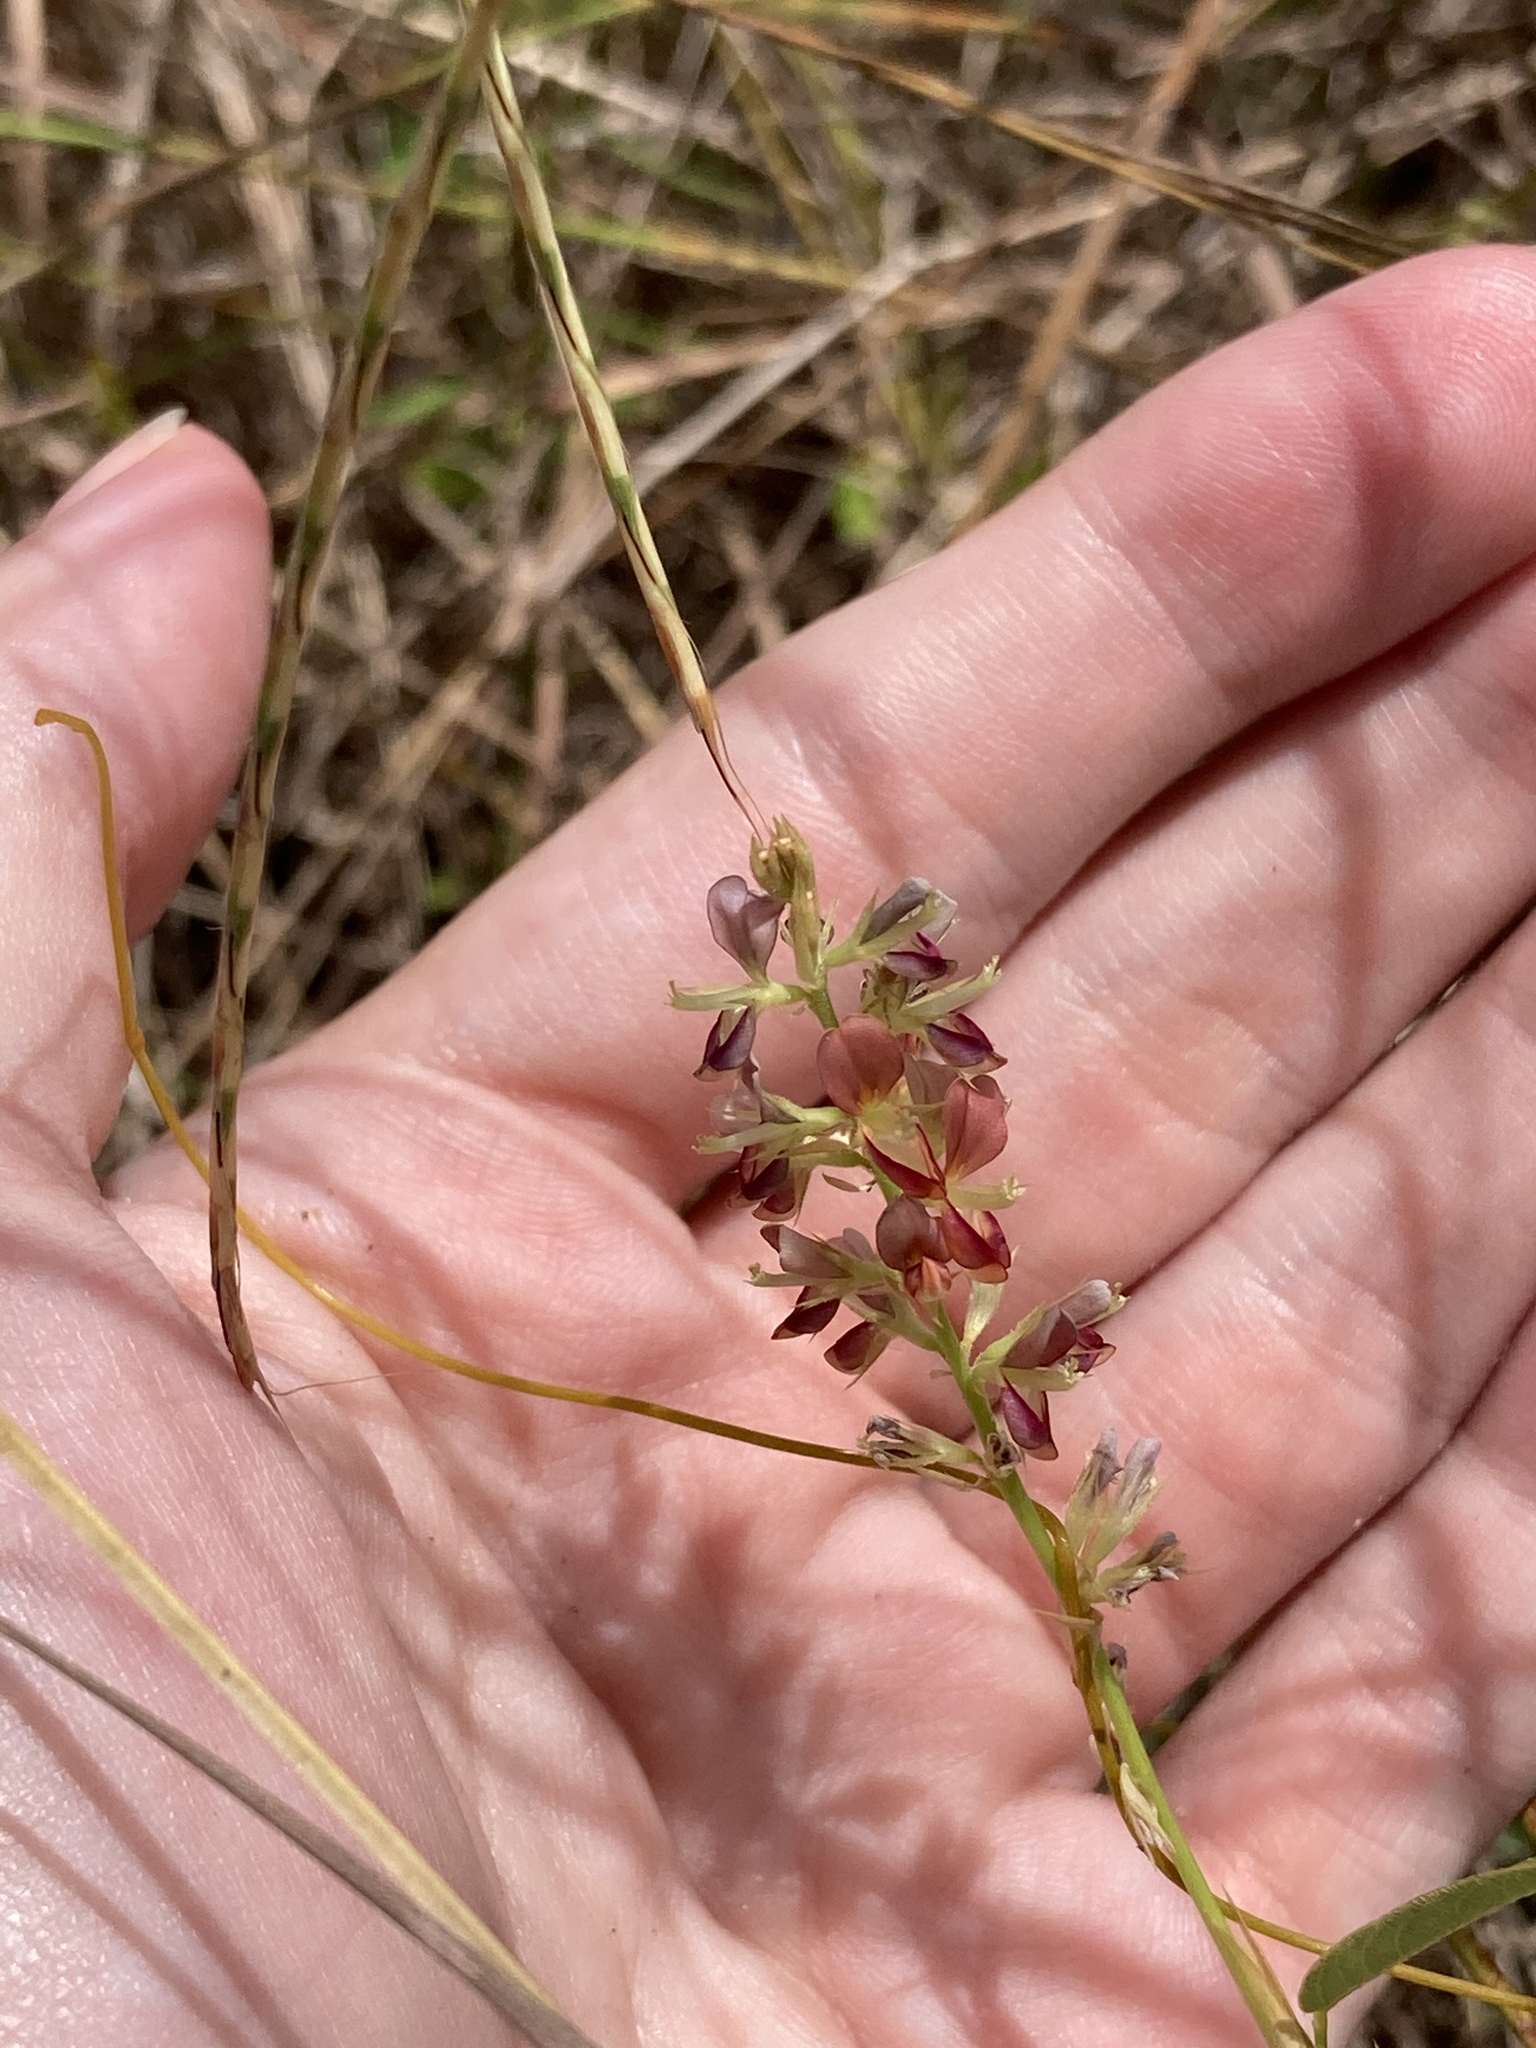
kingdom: Plantae
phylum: Tracheophyta
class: Magnoliopsida
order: Fabales
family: Fabaceae
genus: Alysicarpus
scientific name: Alysicarpus vaginalis
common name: White moneywort
